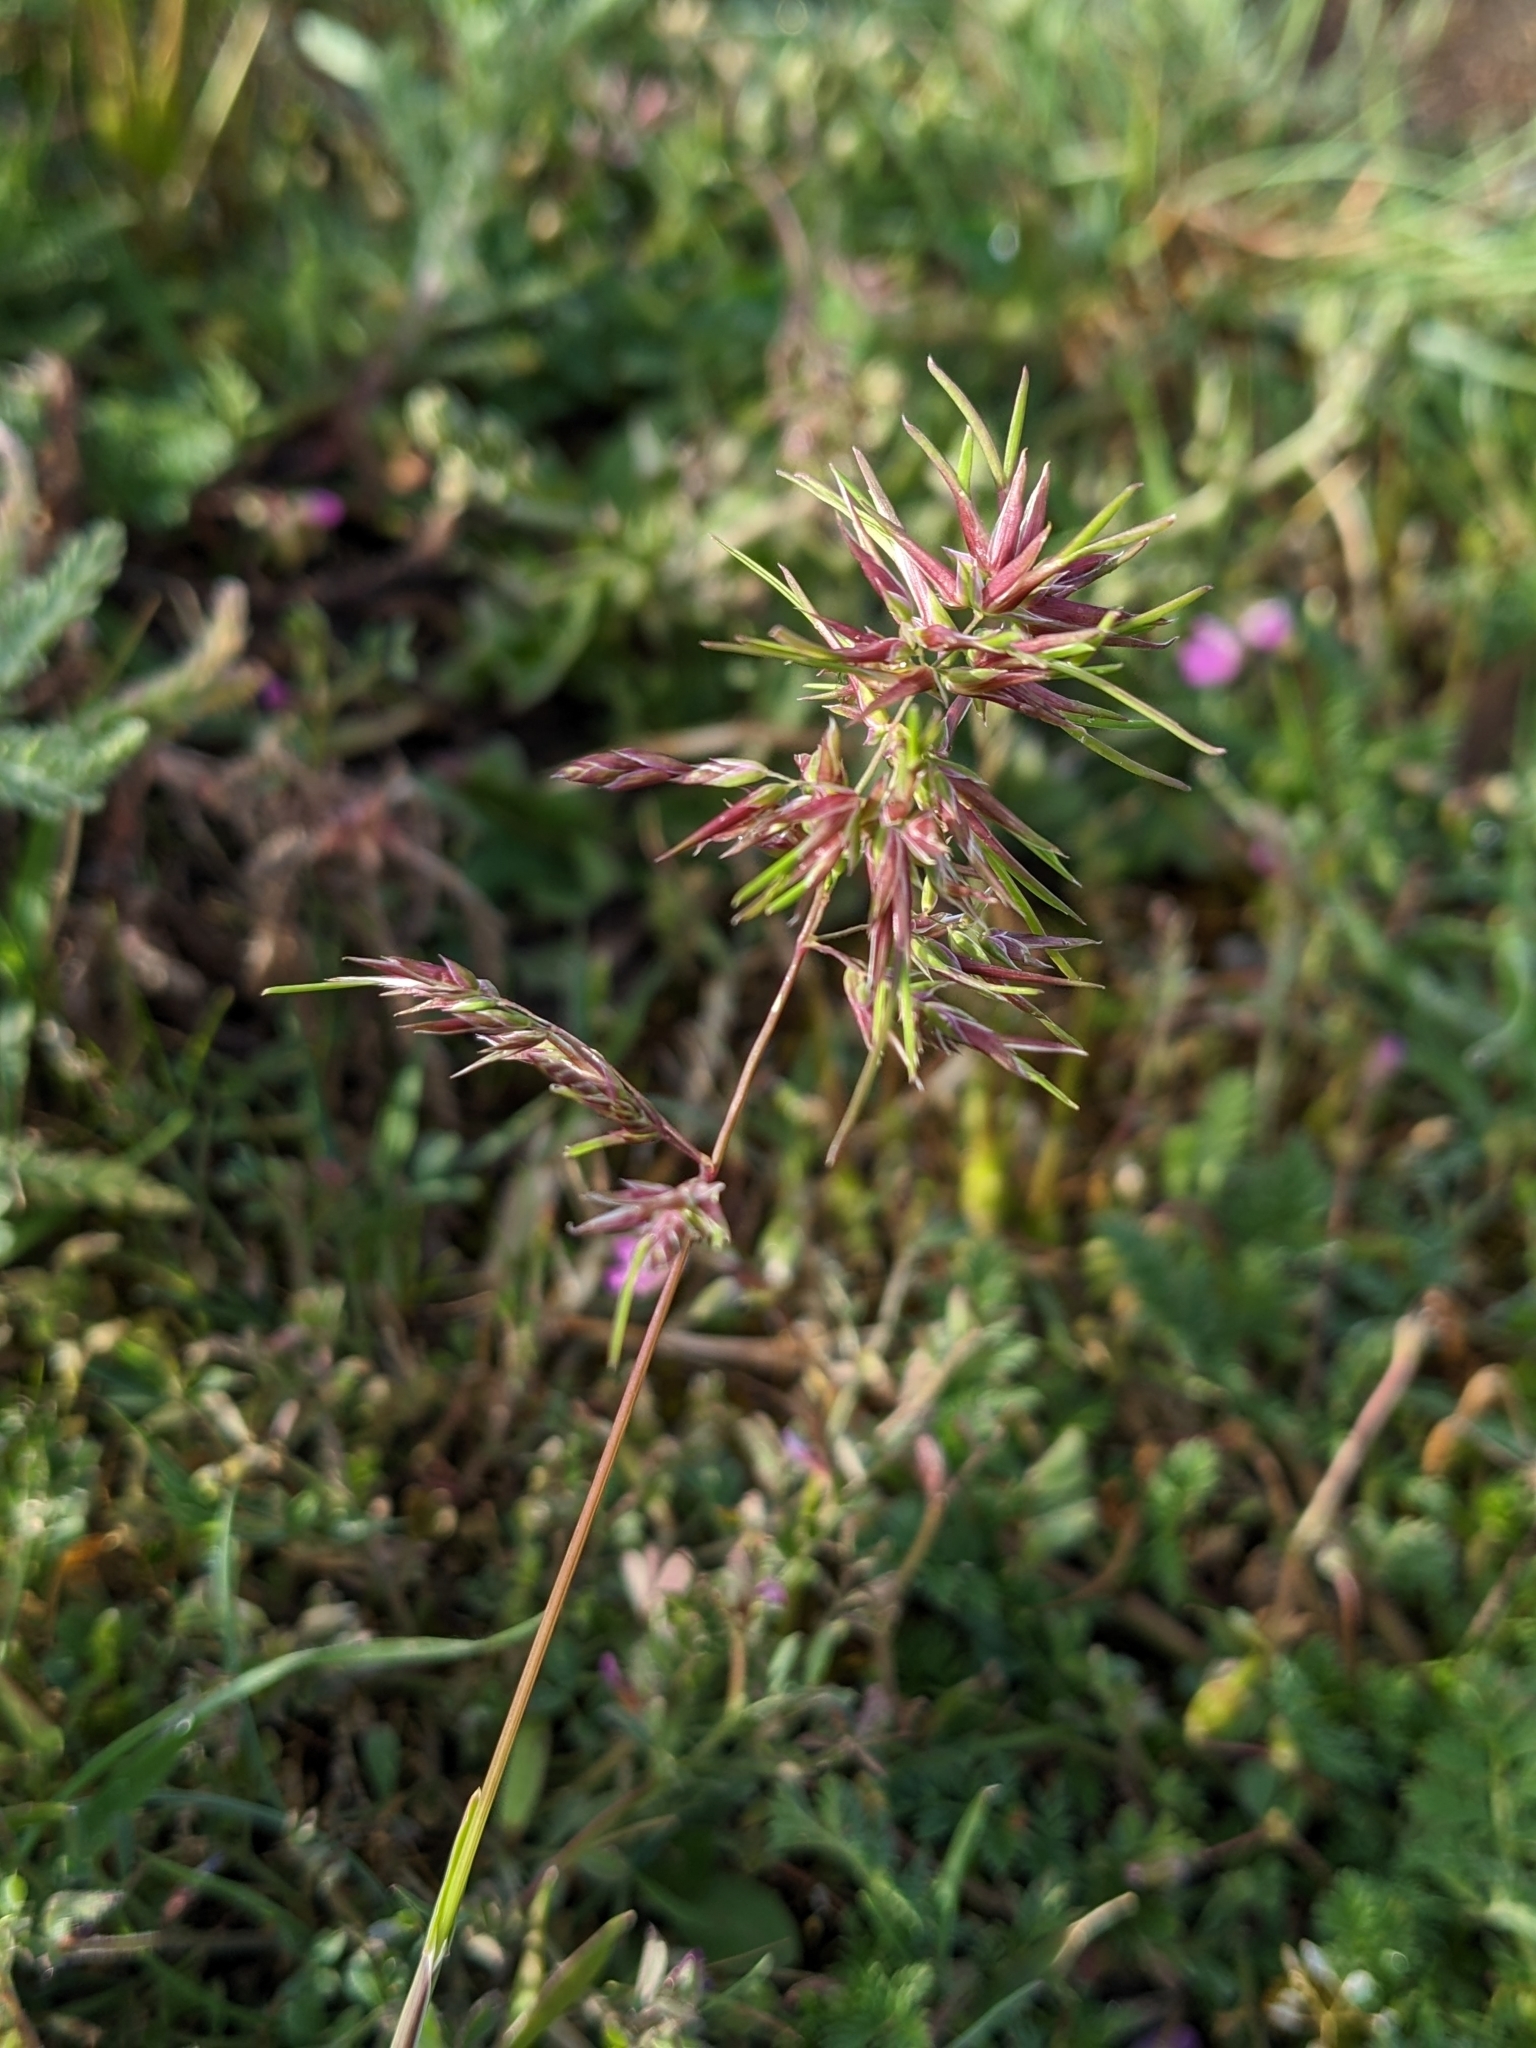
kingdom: Plantae
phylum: Tracheophyta
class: Liliopsida
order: Poales
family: Poaceae
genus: Poa
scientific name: Poa bulbosa
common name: Bulbous bluegrass
